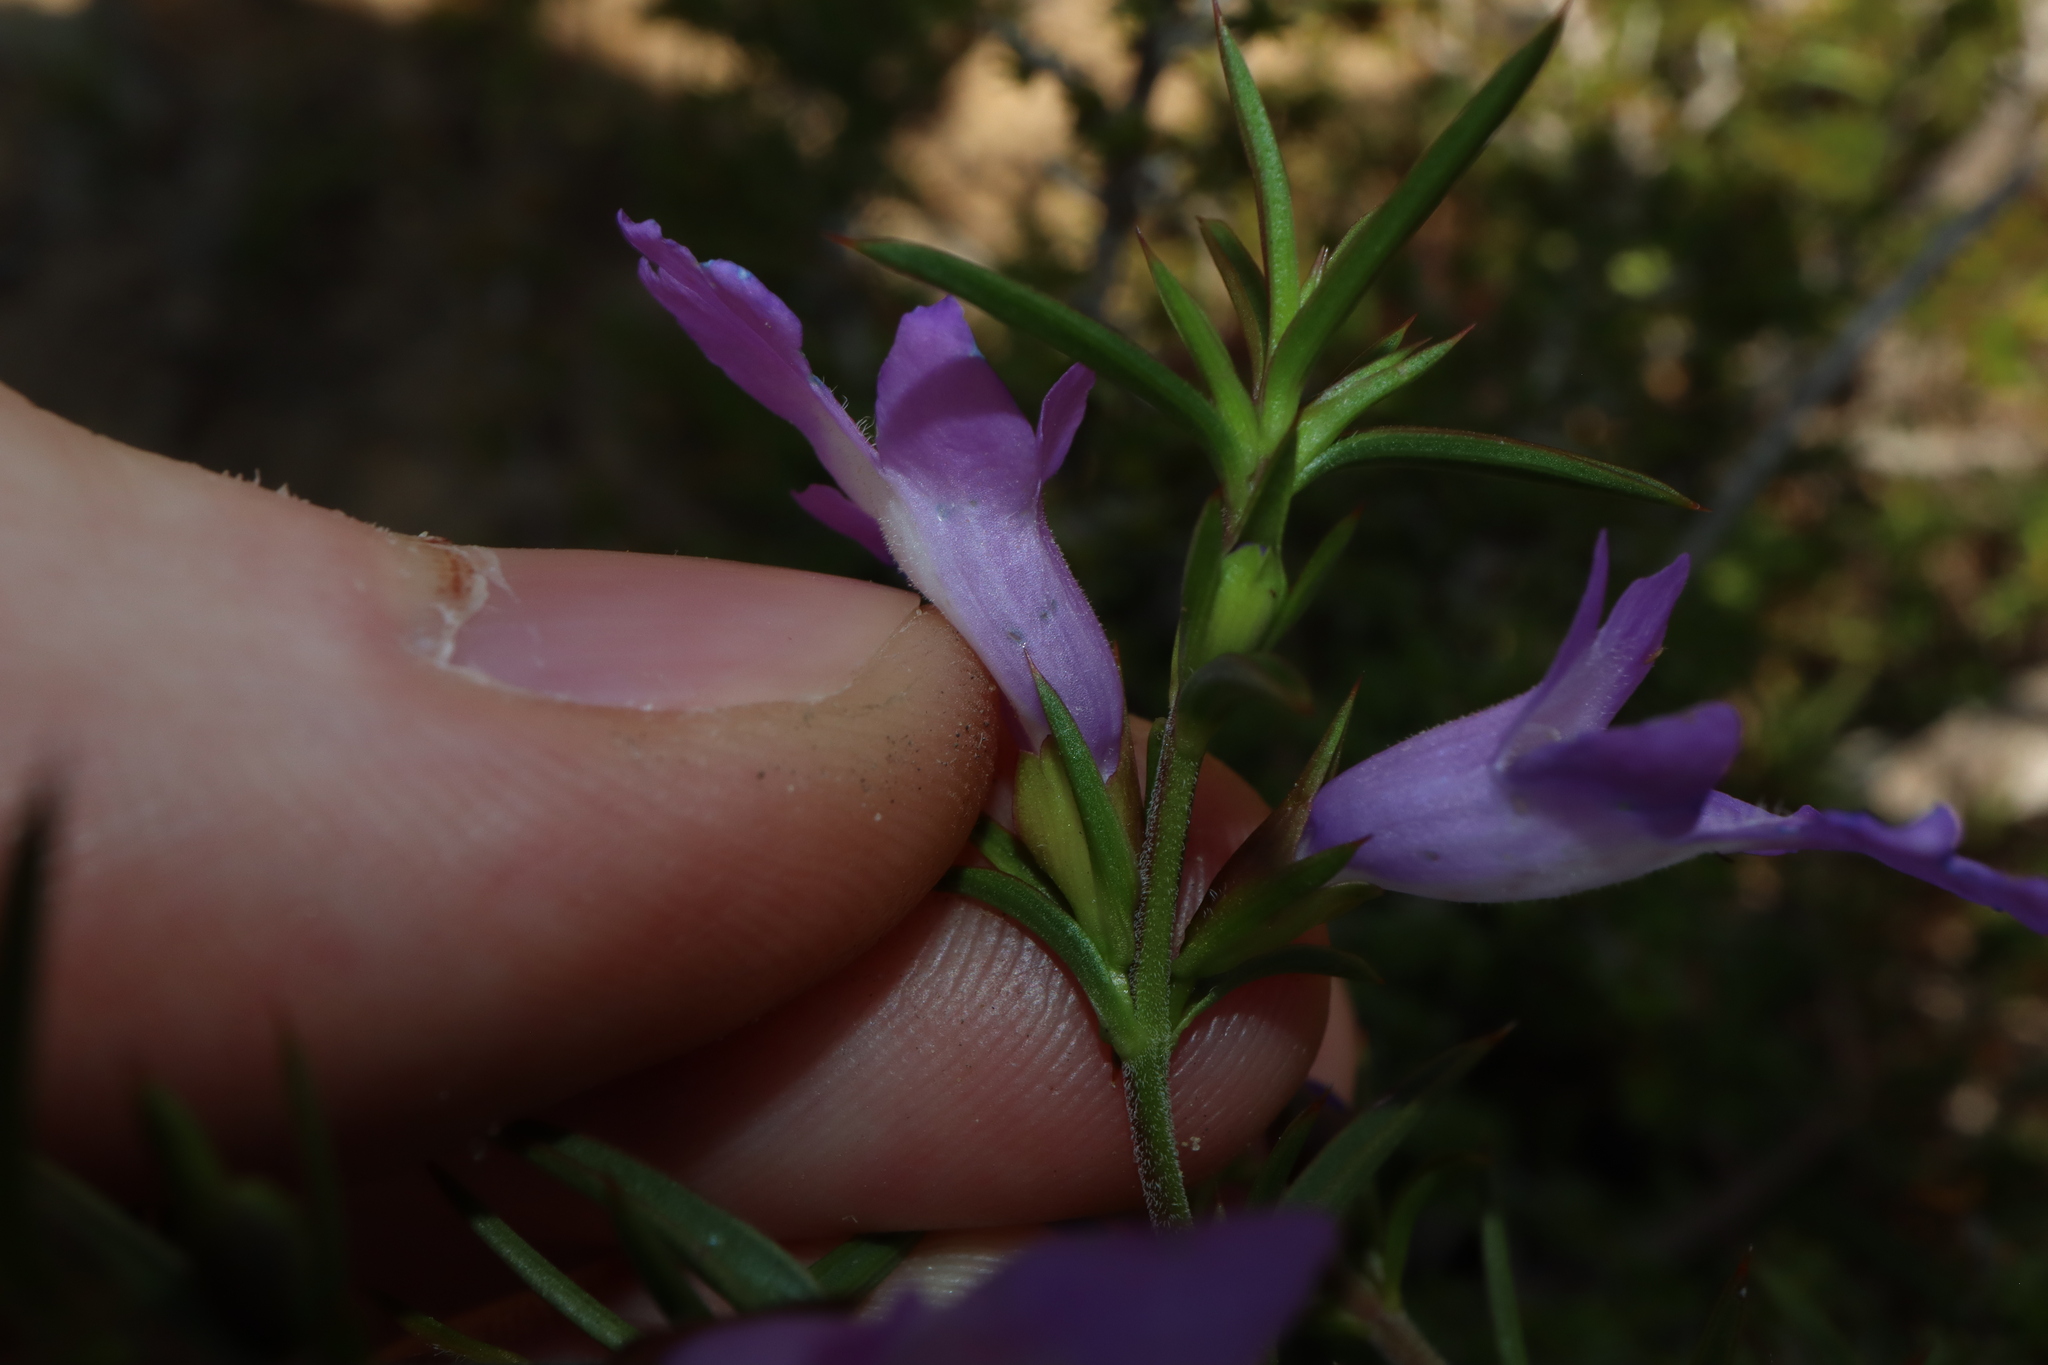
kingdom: Plantae
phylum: Tracheophyta
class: Magnoliopsida
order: Lamiales
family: Lamiaceae
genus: Hemiandra
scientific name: Hemiandra pungens
